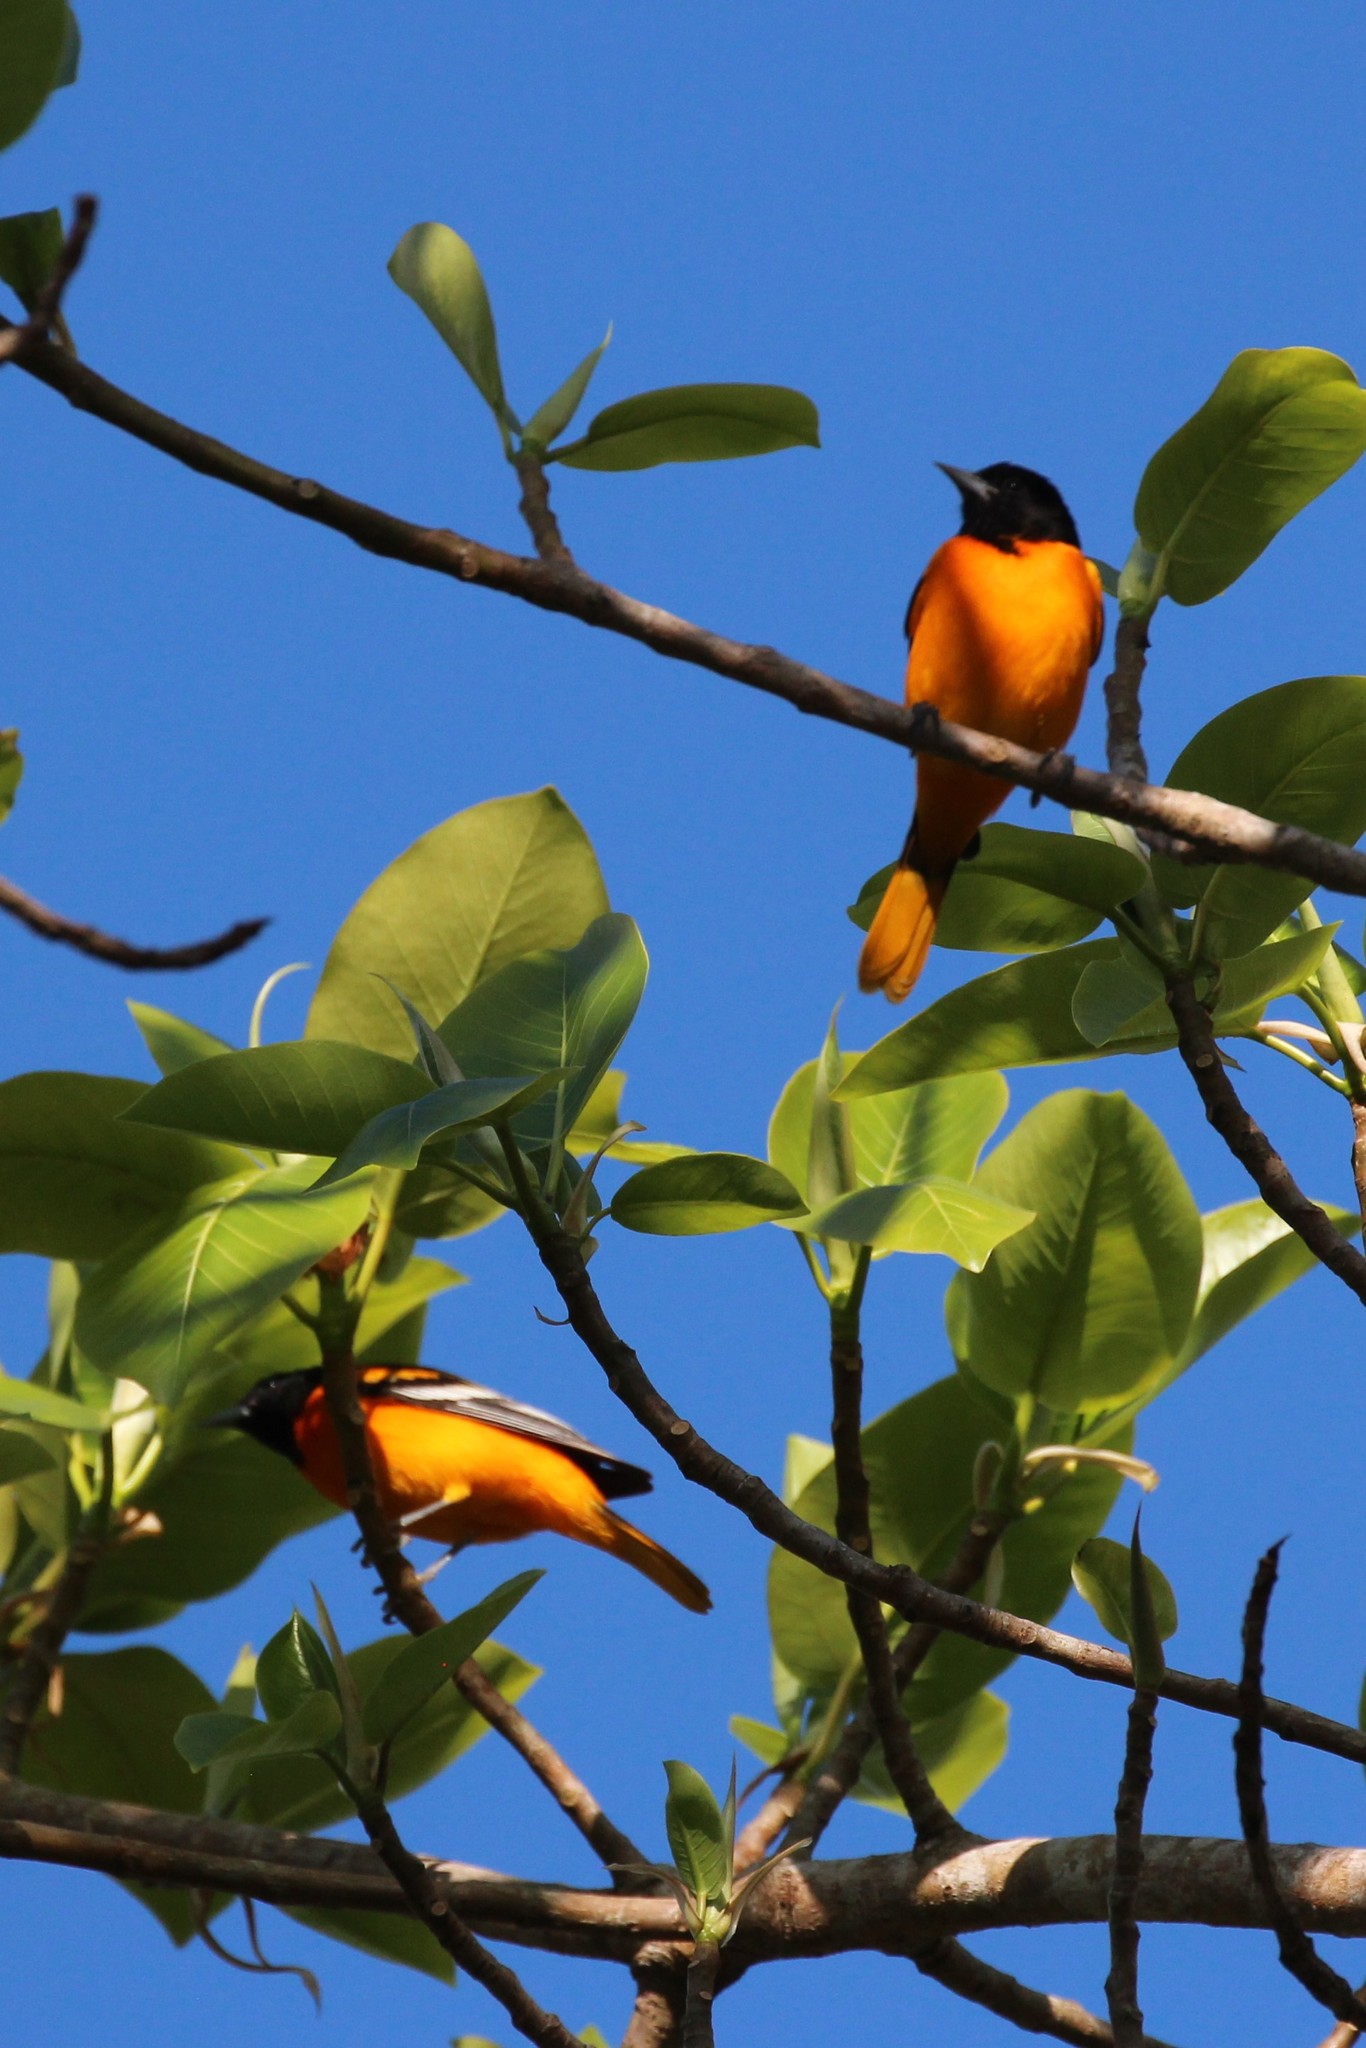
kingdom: Animalia
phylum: Chordata
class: Aves
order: Passeriformes
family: Icteridae
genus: Icterus
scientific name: Icterus galbula
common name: Baltimore oriole
